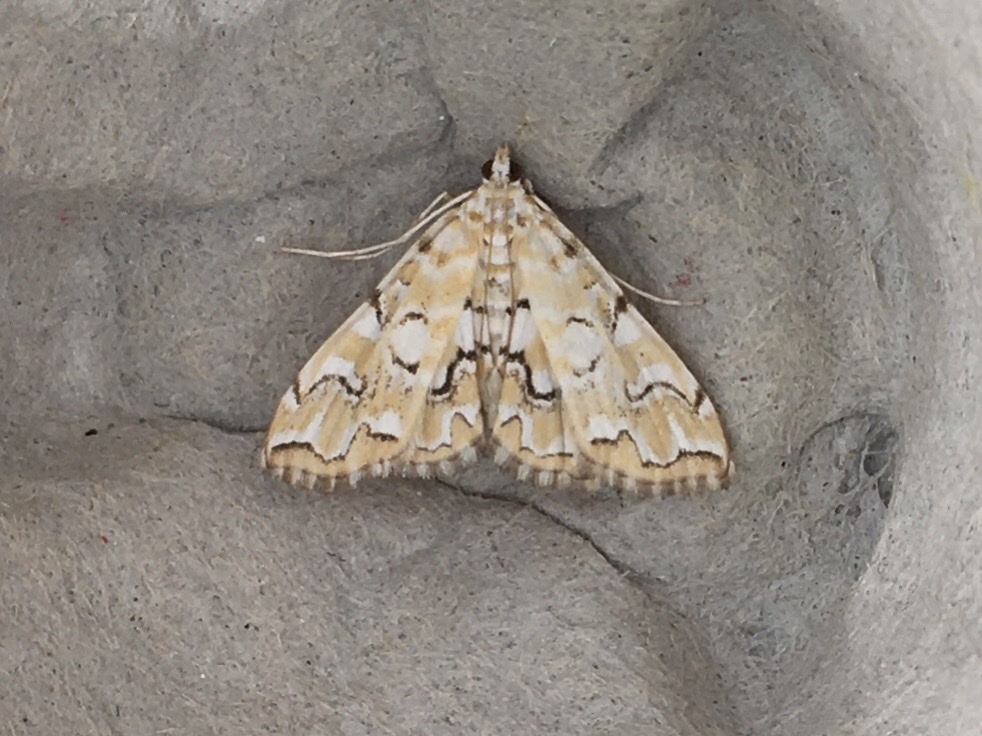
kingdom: Animalia
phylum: Arthropoda
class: Insecta
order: Lepidoptera
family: Crambidae
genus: Elophila
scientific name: Elophila icciusalis
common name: Pondside pyralid moth
